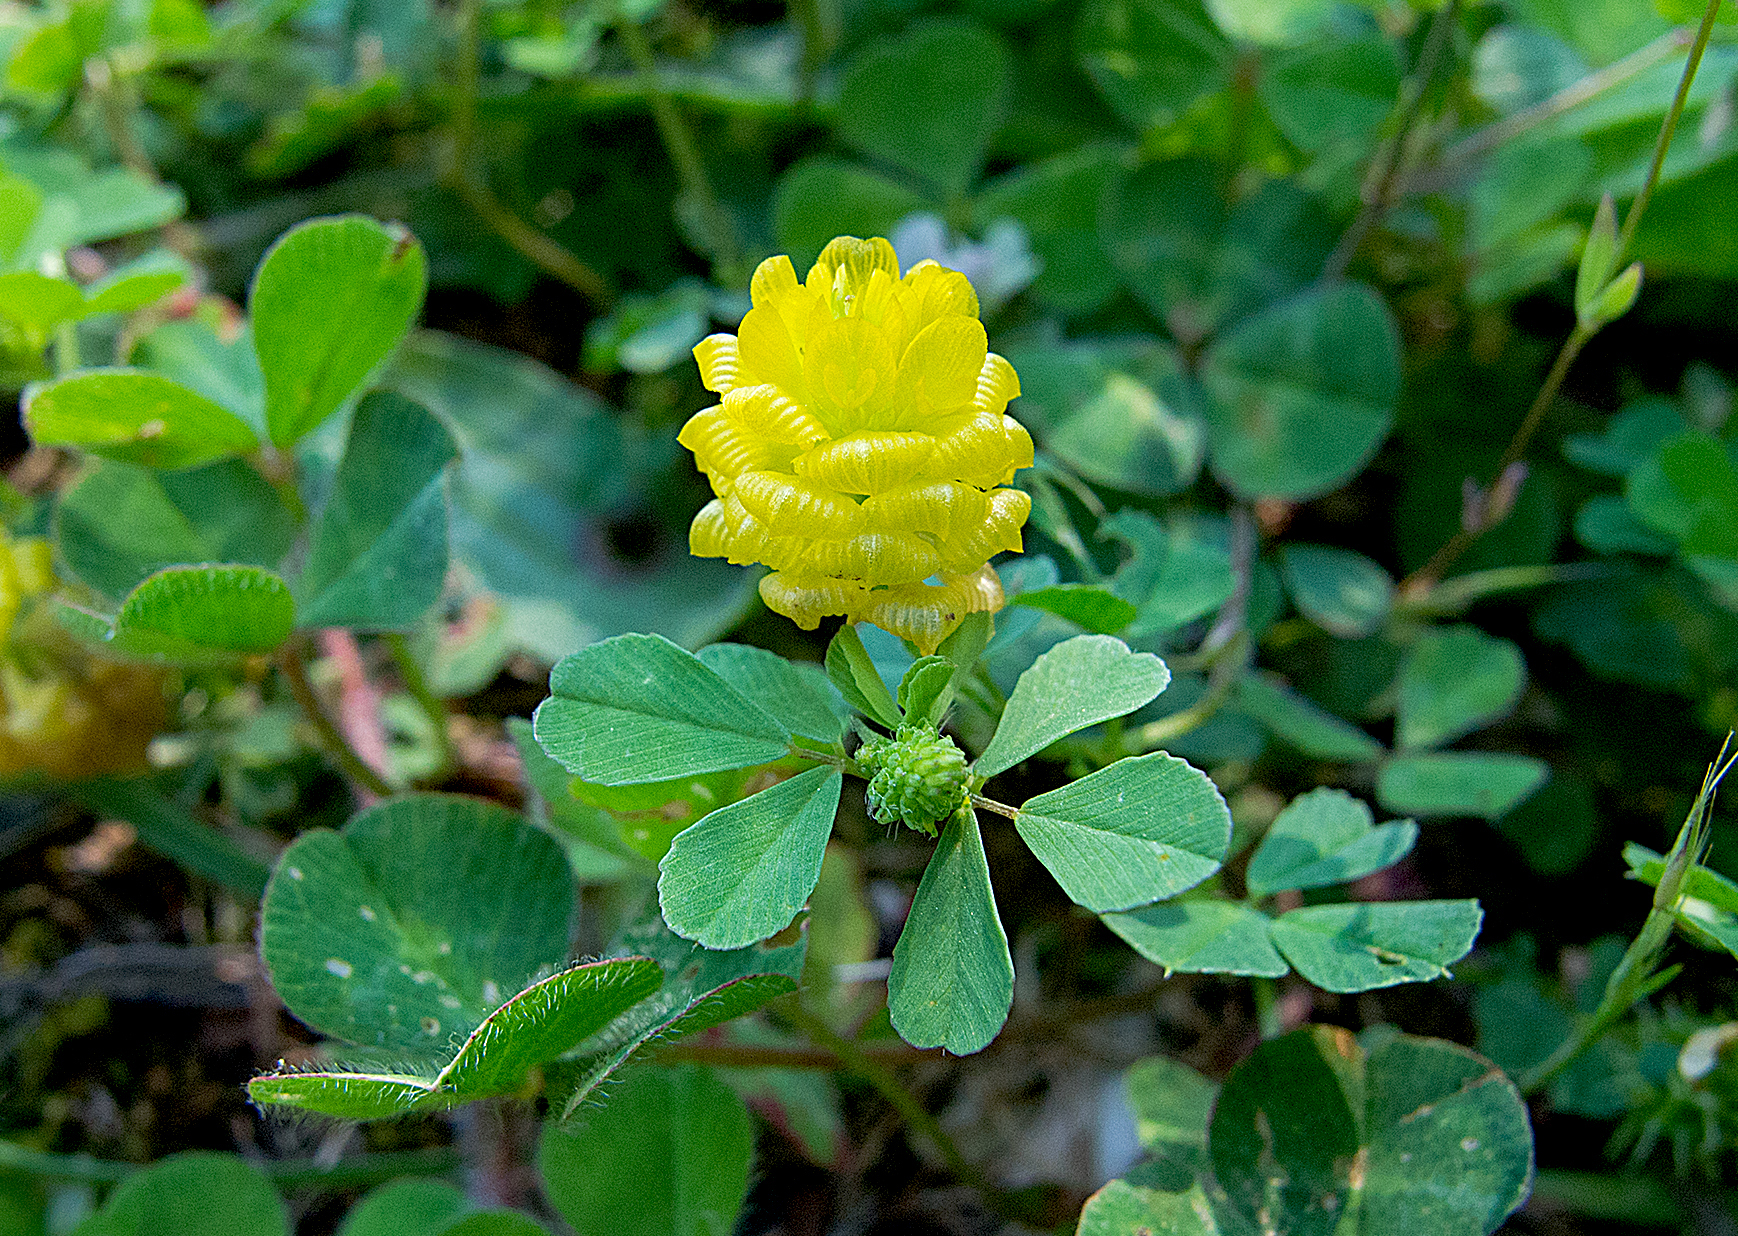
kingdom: Plantae
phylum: Tracheophyta
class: Magnoliopsida
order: Fabales
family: Fabaceae
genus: Trifolium
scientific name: Trifolium campestre
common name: Field clover
